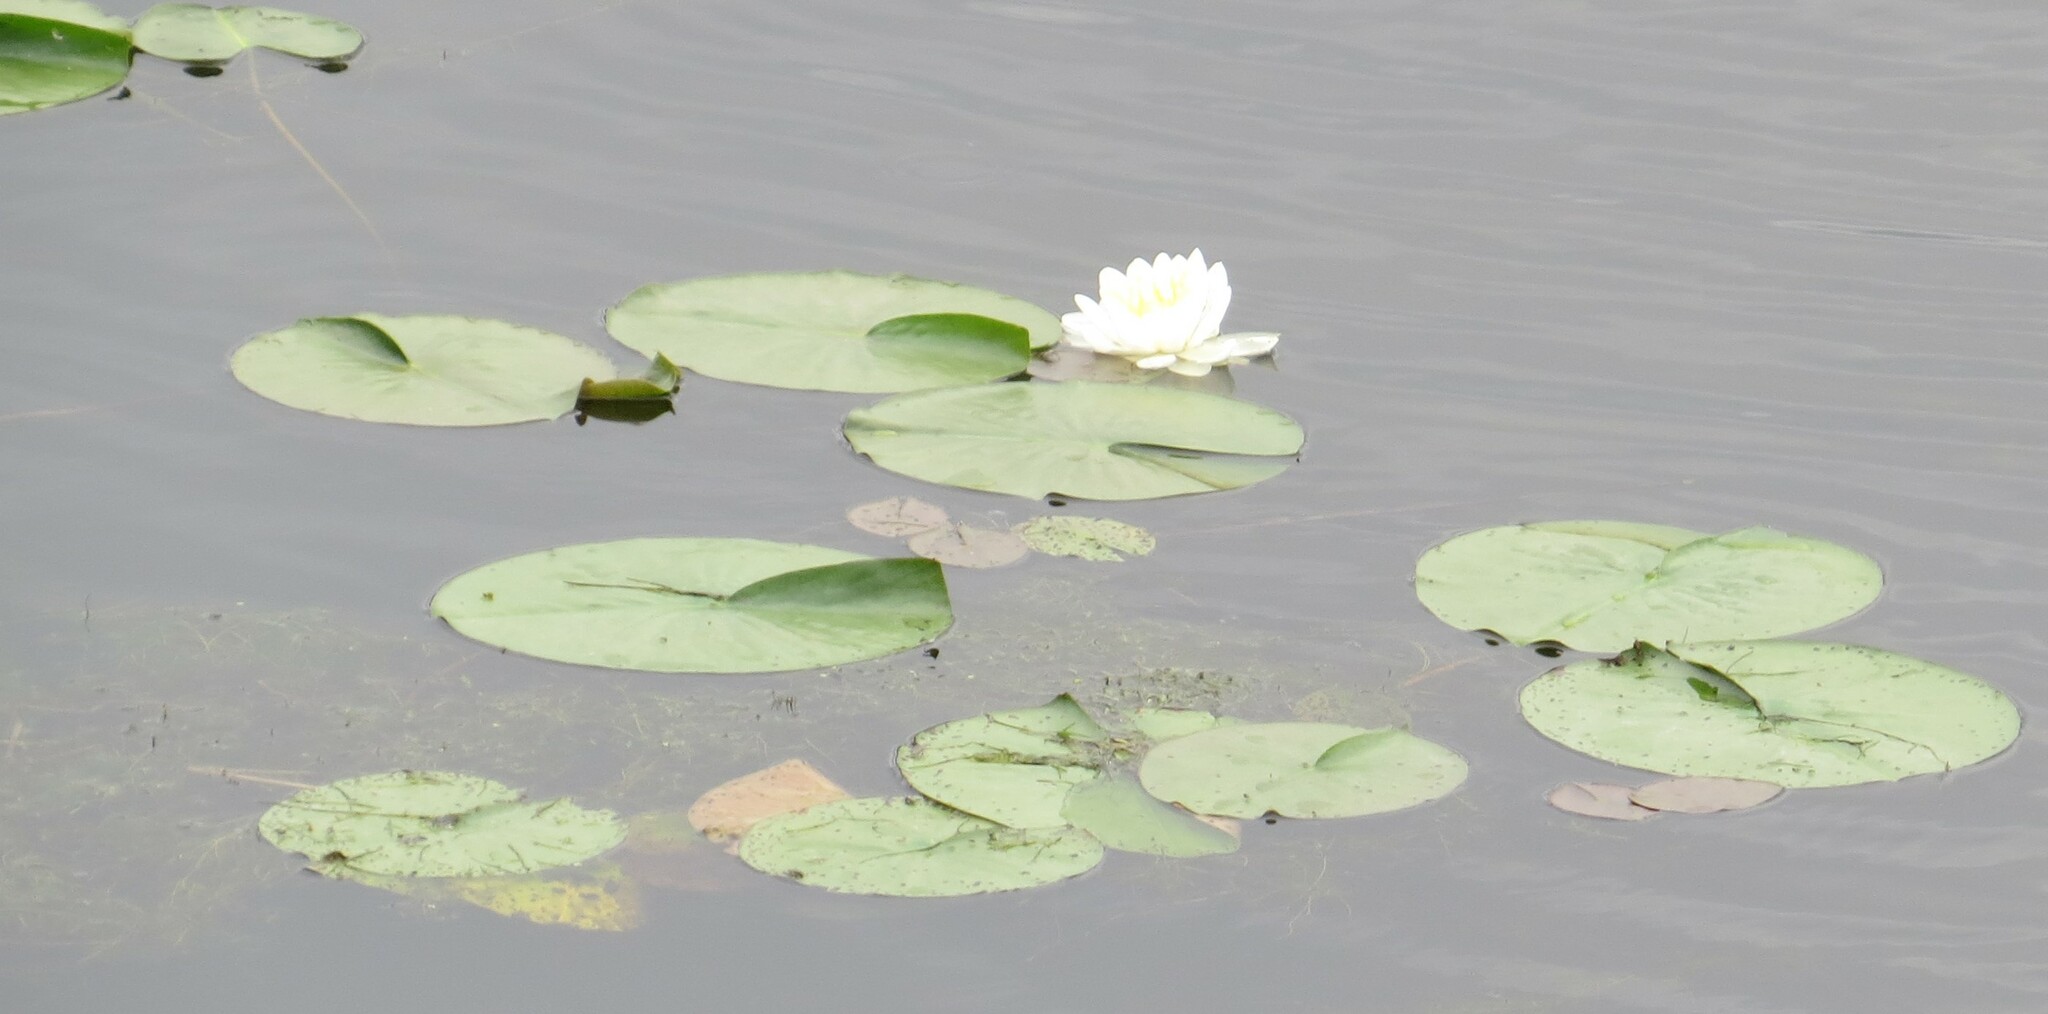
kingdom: Plantae
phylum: Tracheophyta
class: Magnoliopsida
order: Nymphaeales
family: Nymphaeaceae
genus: Nymphaea
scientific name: Nymphaea odorata
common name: Fragrant water-lily
